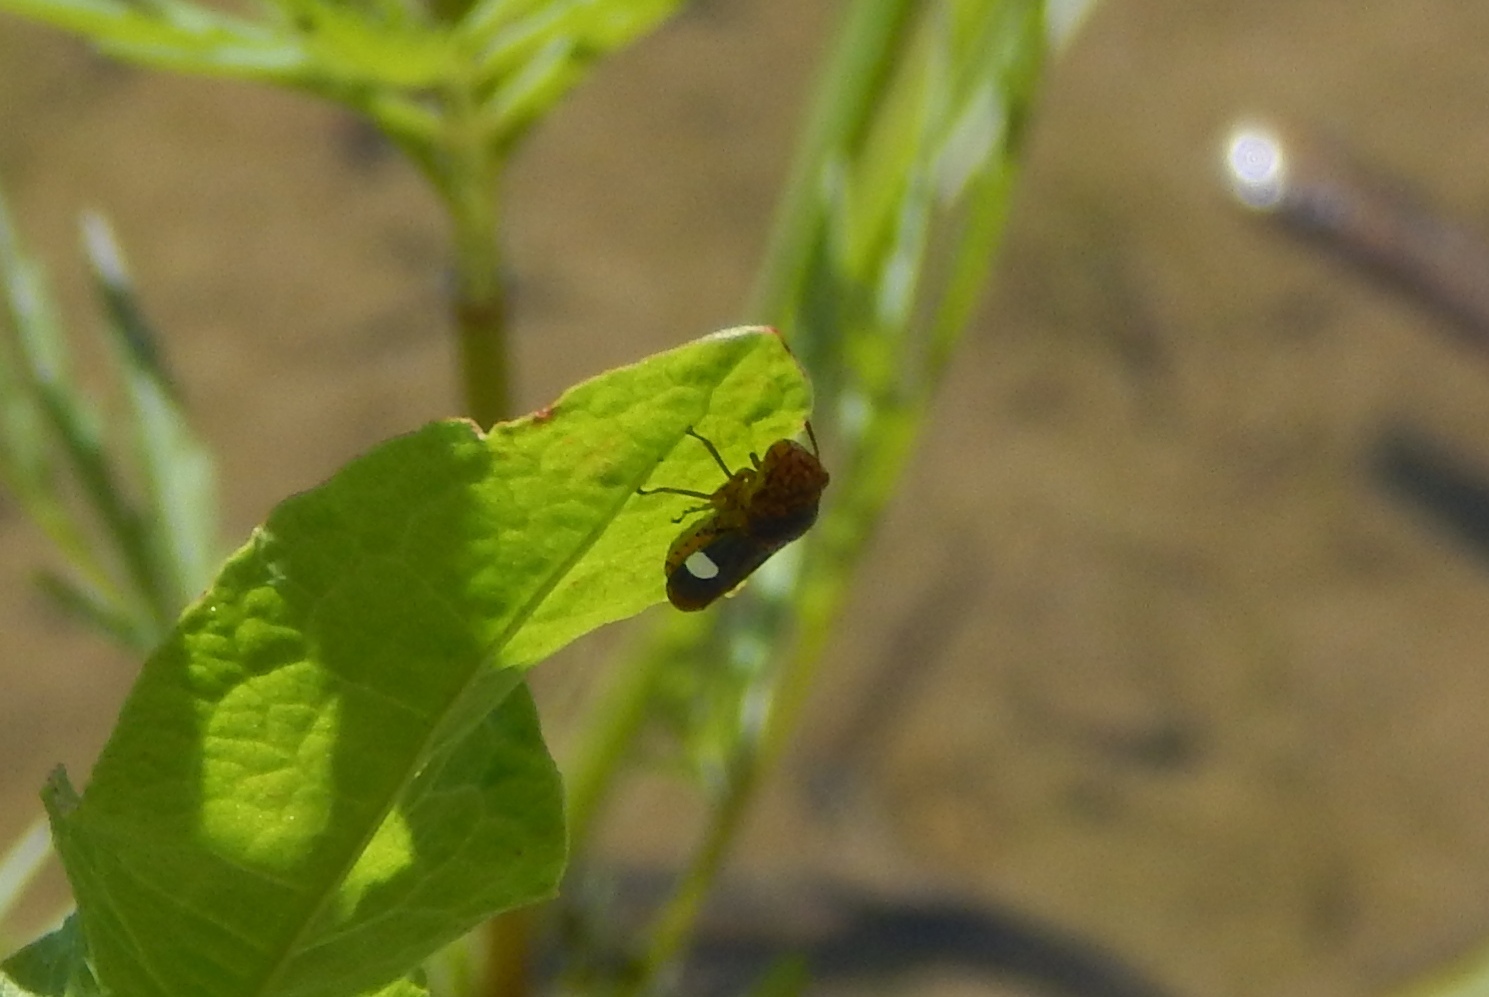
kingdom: Animalia
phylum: Arthropoda
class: Insecta
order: Hemiptera
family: Cicadellidae
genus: Oncometopia
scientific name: Oncometopia orbona
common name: Broad-headed sharpshooter
